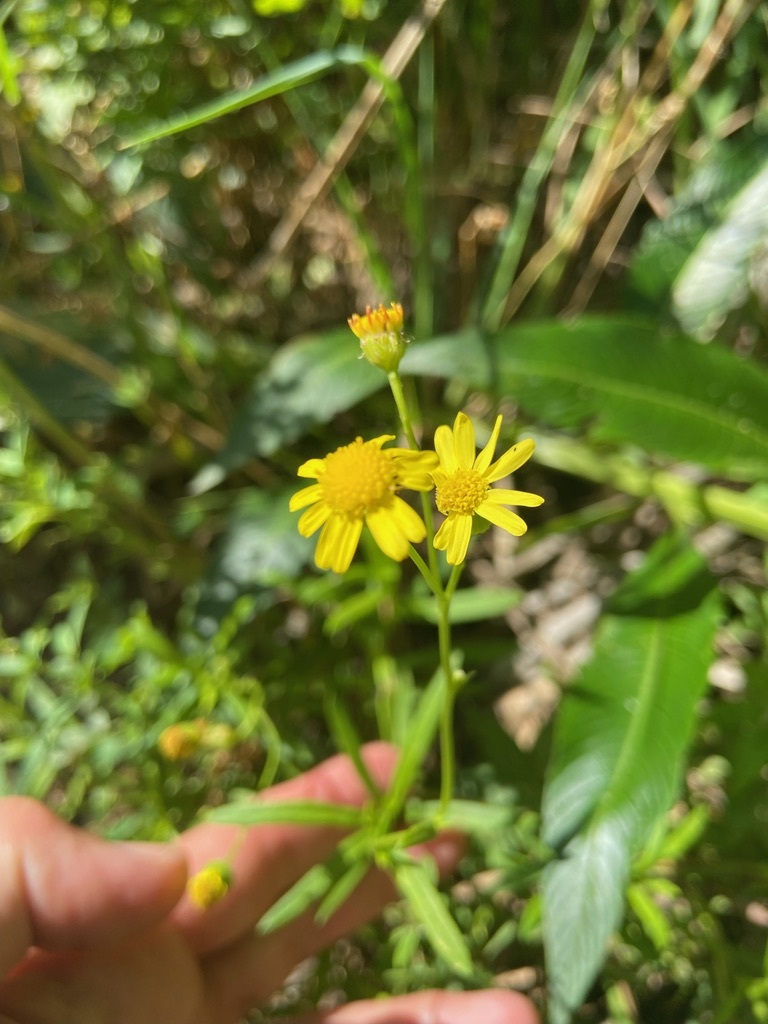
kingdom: Plantae
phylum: Tracheophyta
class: Magnoliopsida
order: Asterales
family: Asteraceae
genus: Senecio
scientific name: Senecio madagascariensis
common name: Madagascar ragwort
